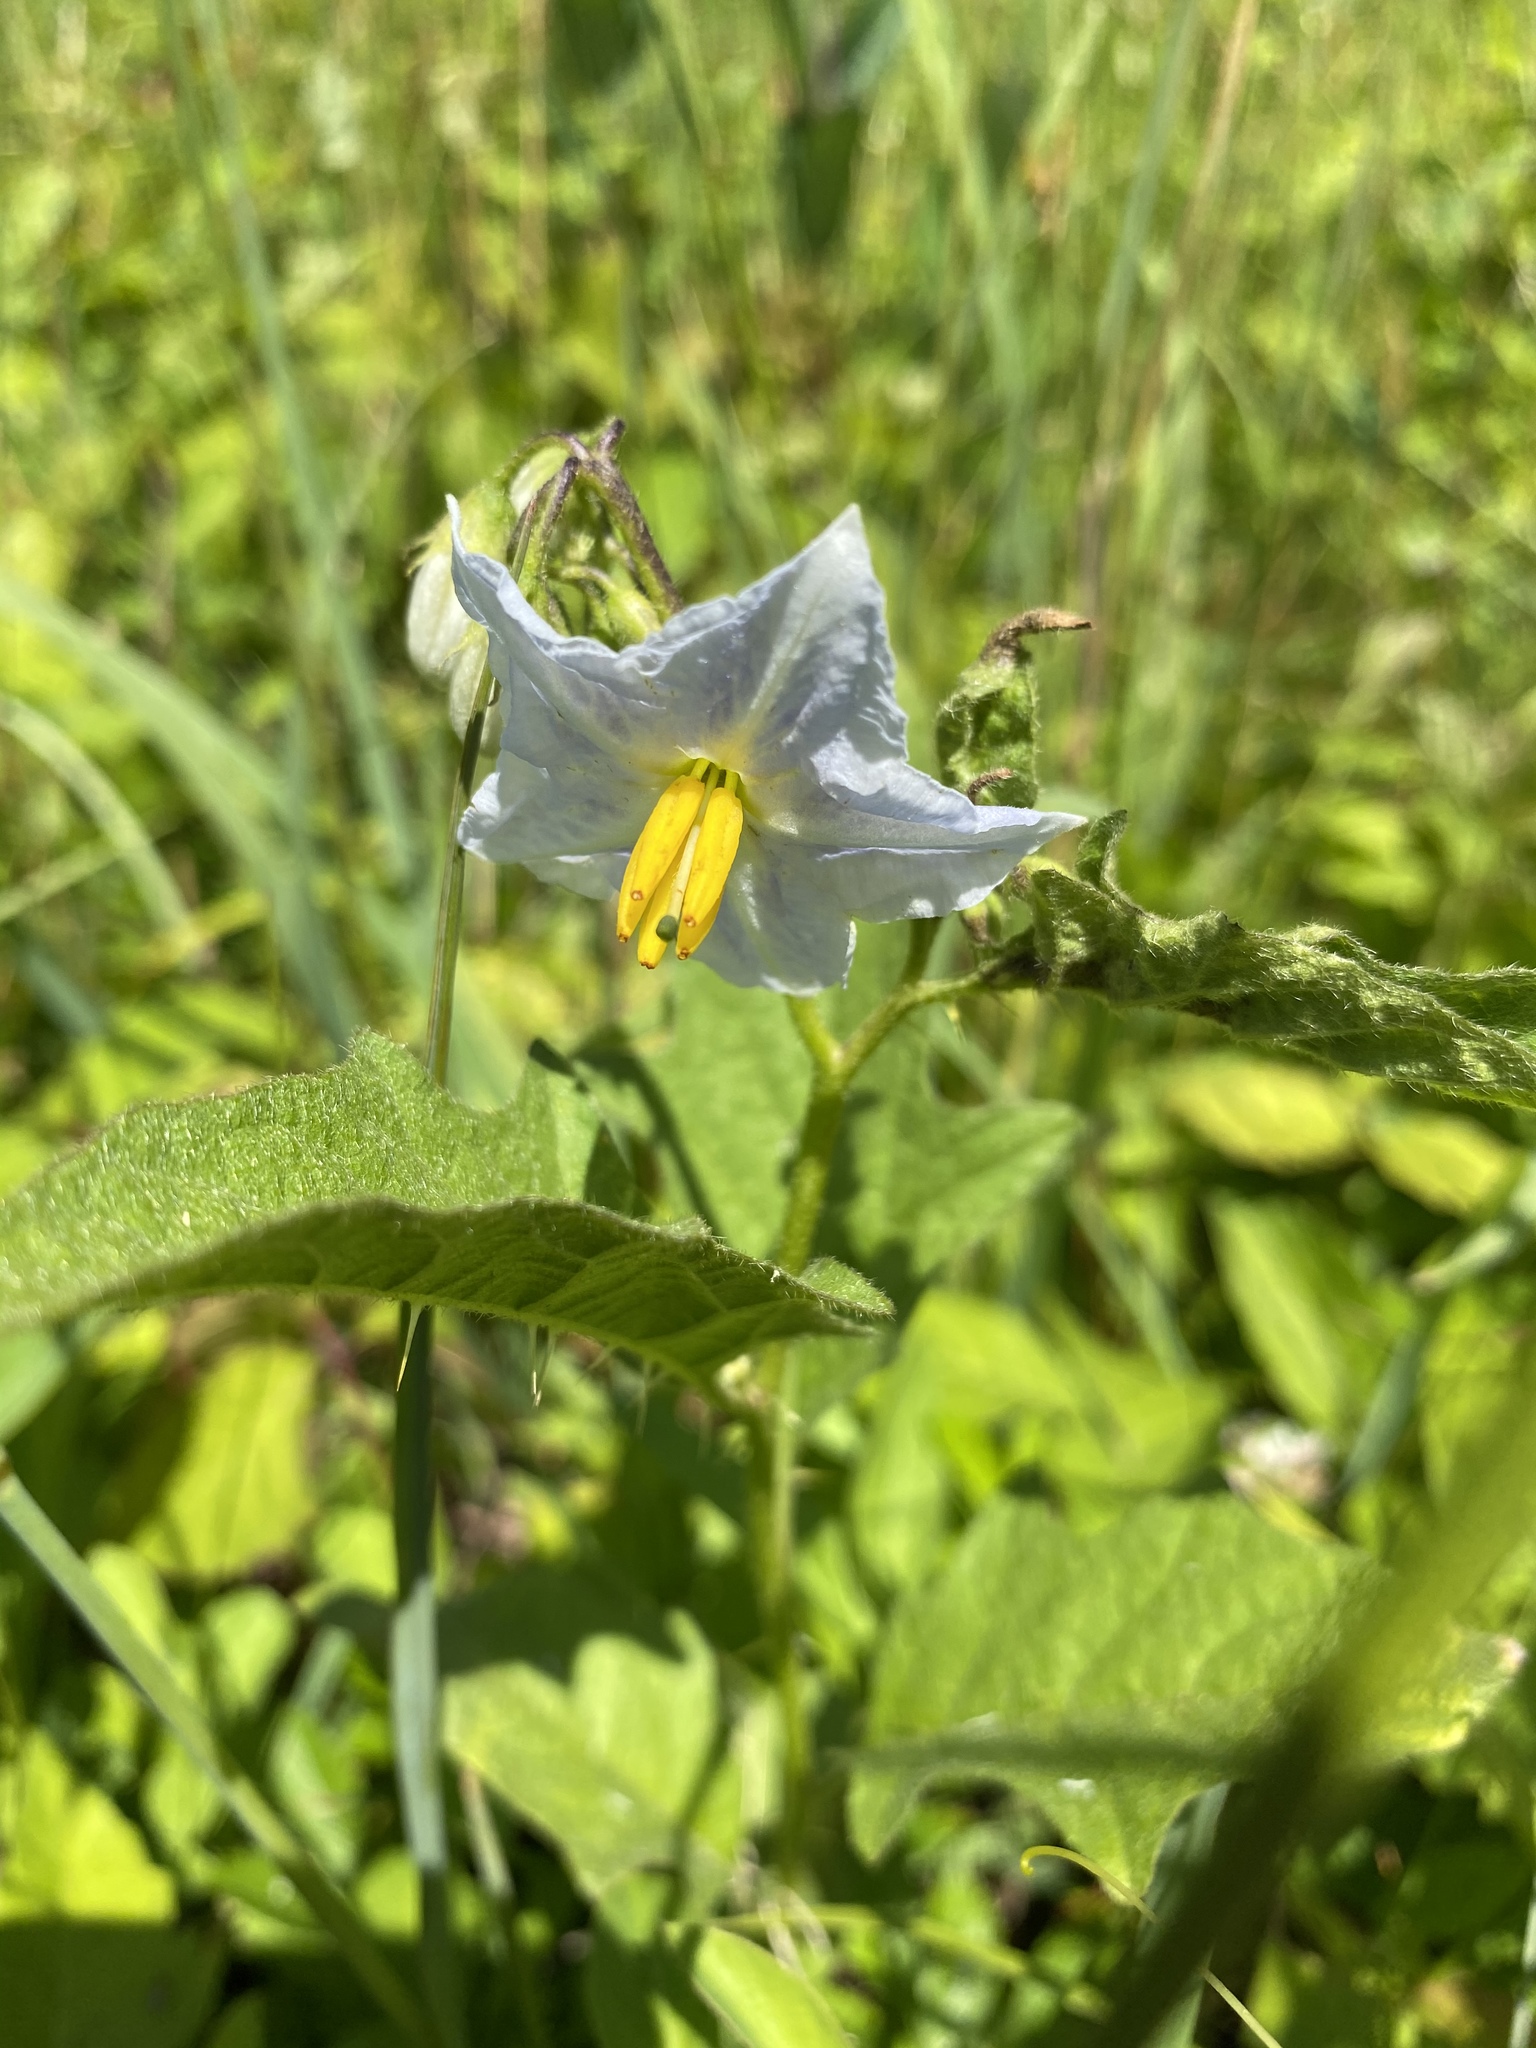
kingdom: Plantae
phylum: Tracheophyta
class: Magnoliopsida
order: Solanales
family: Solanaceae
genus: Solanum
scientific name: Solanum carolinense
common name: Horse-nettle
